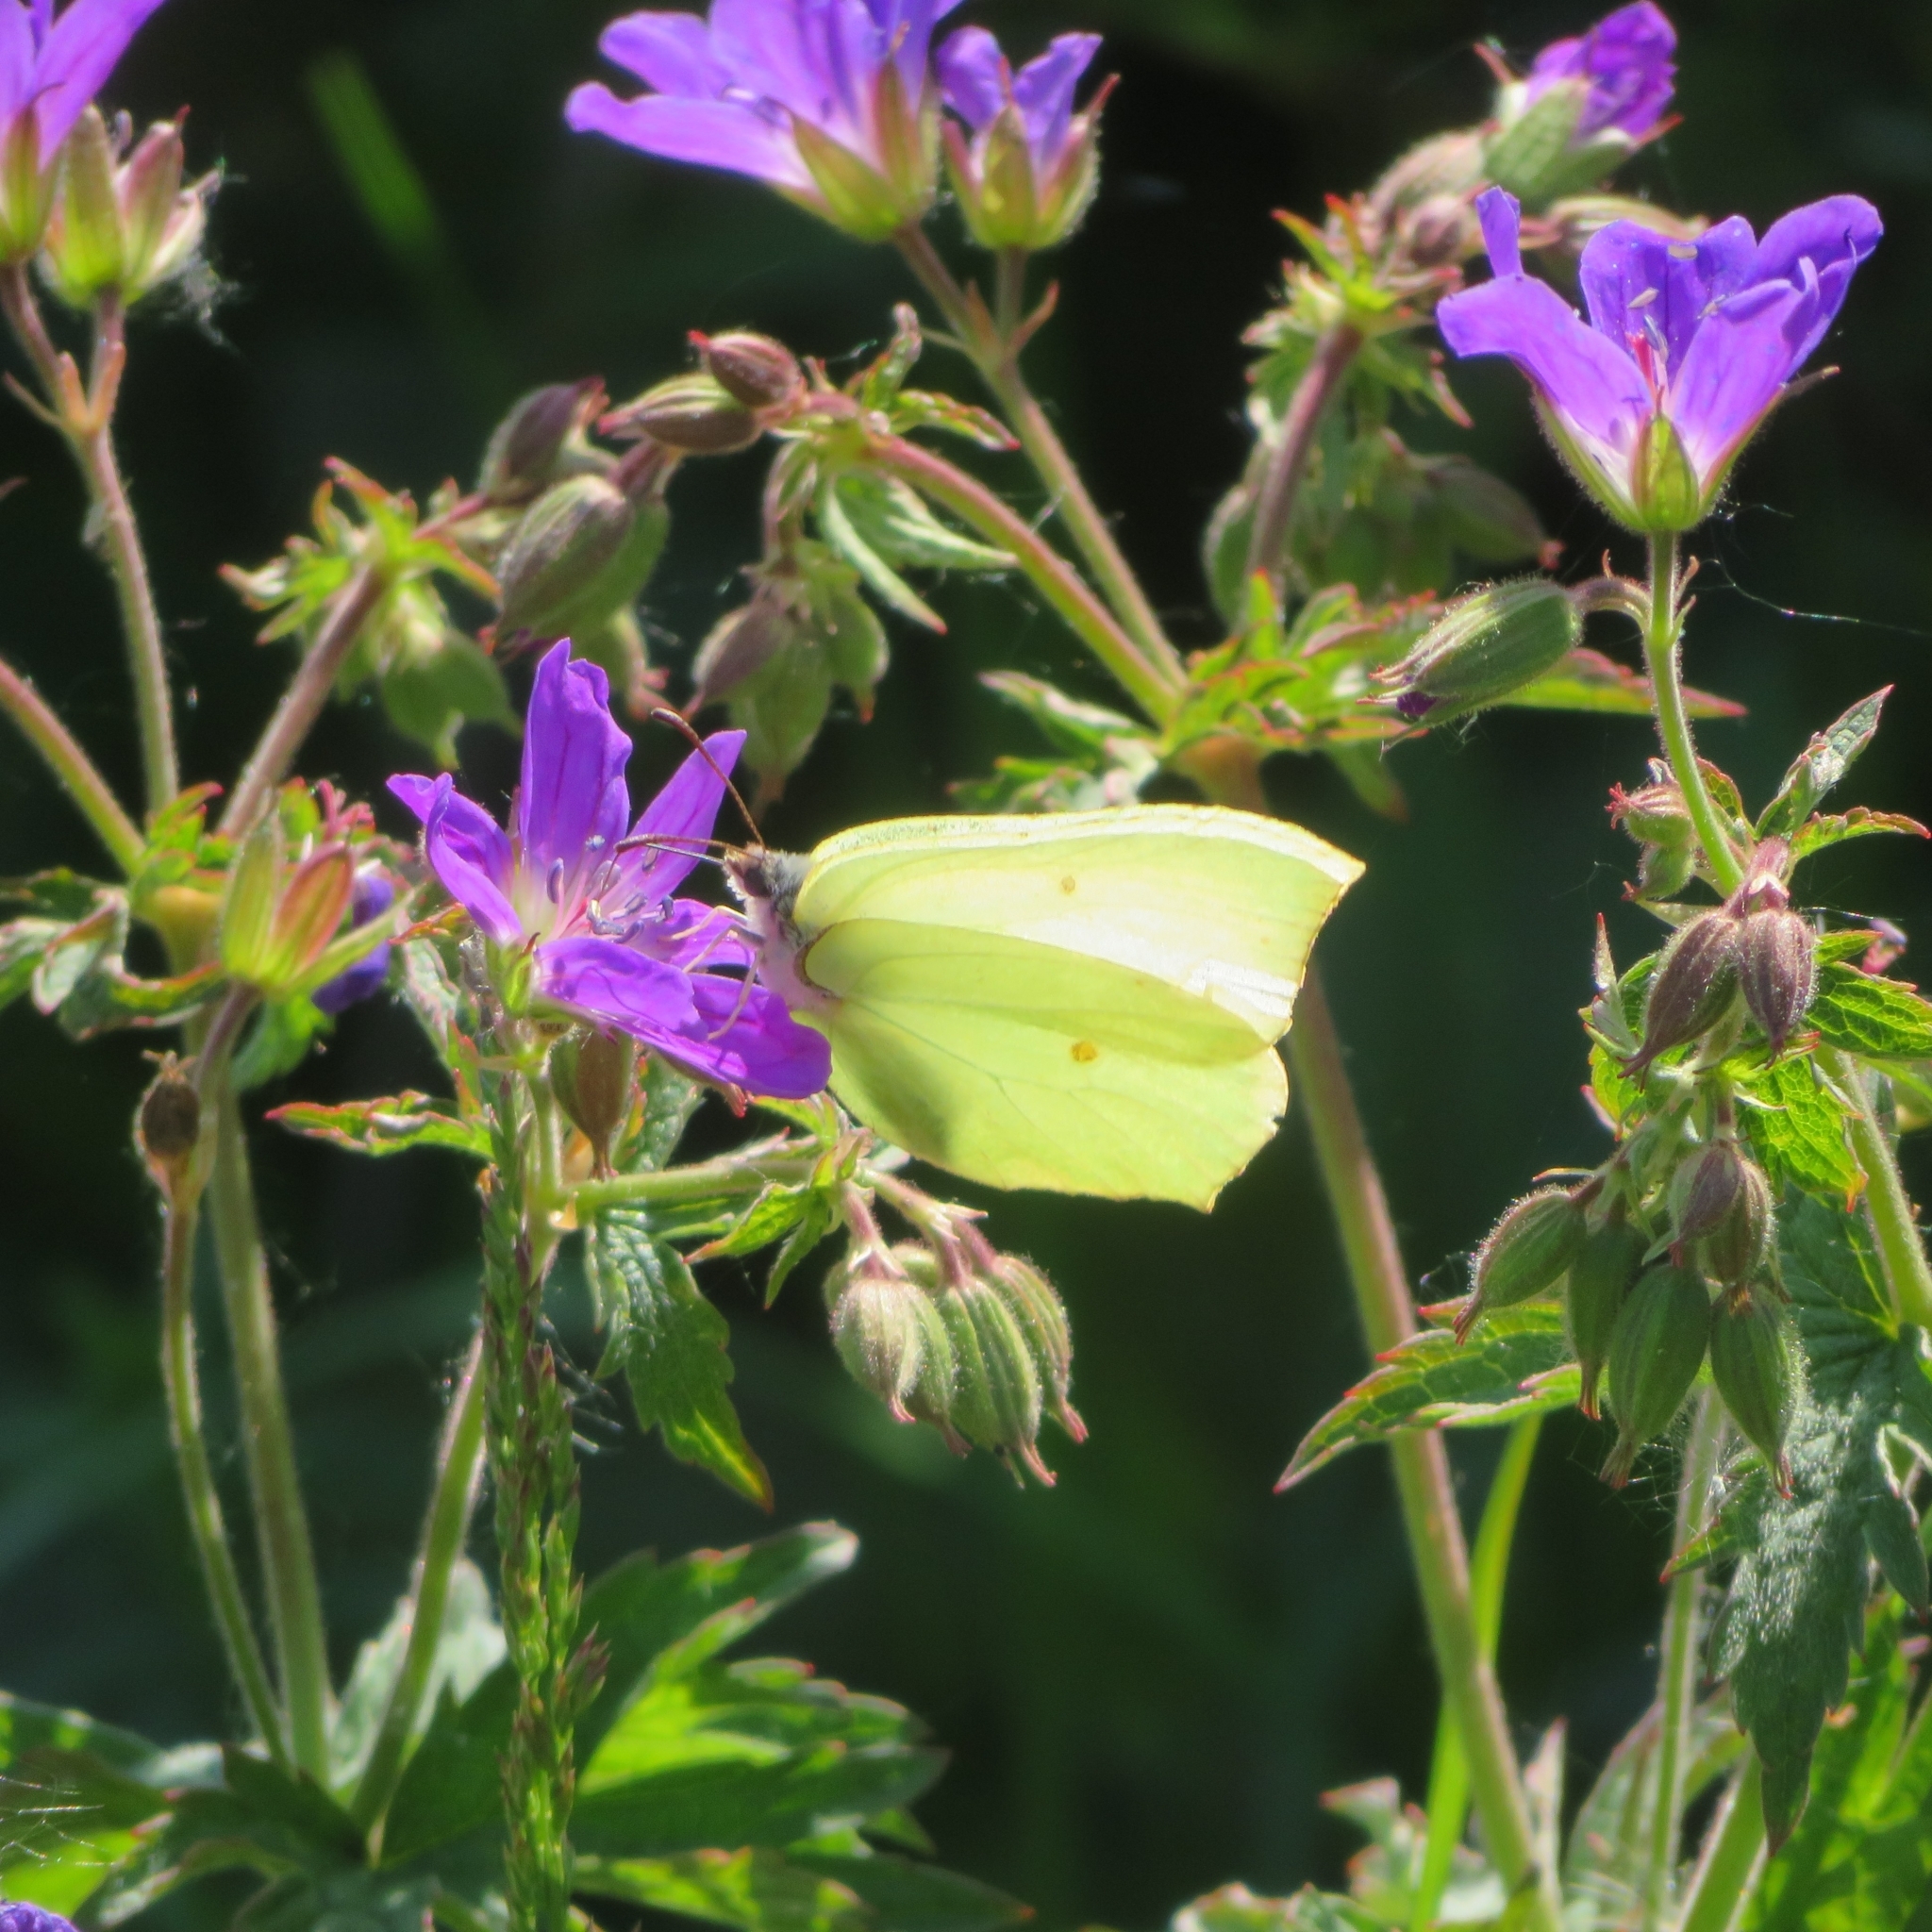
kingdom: Animalia
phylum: Arthropoda
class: Insecta
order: Lepidoptera
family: Pieridae
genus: Gonepteryx
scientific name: Gonepteryx rhamni
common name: Brimstone
